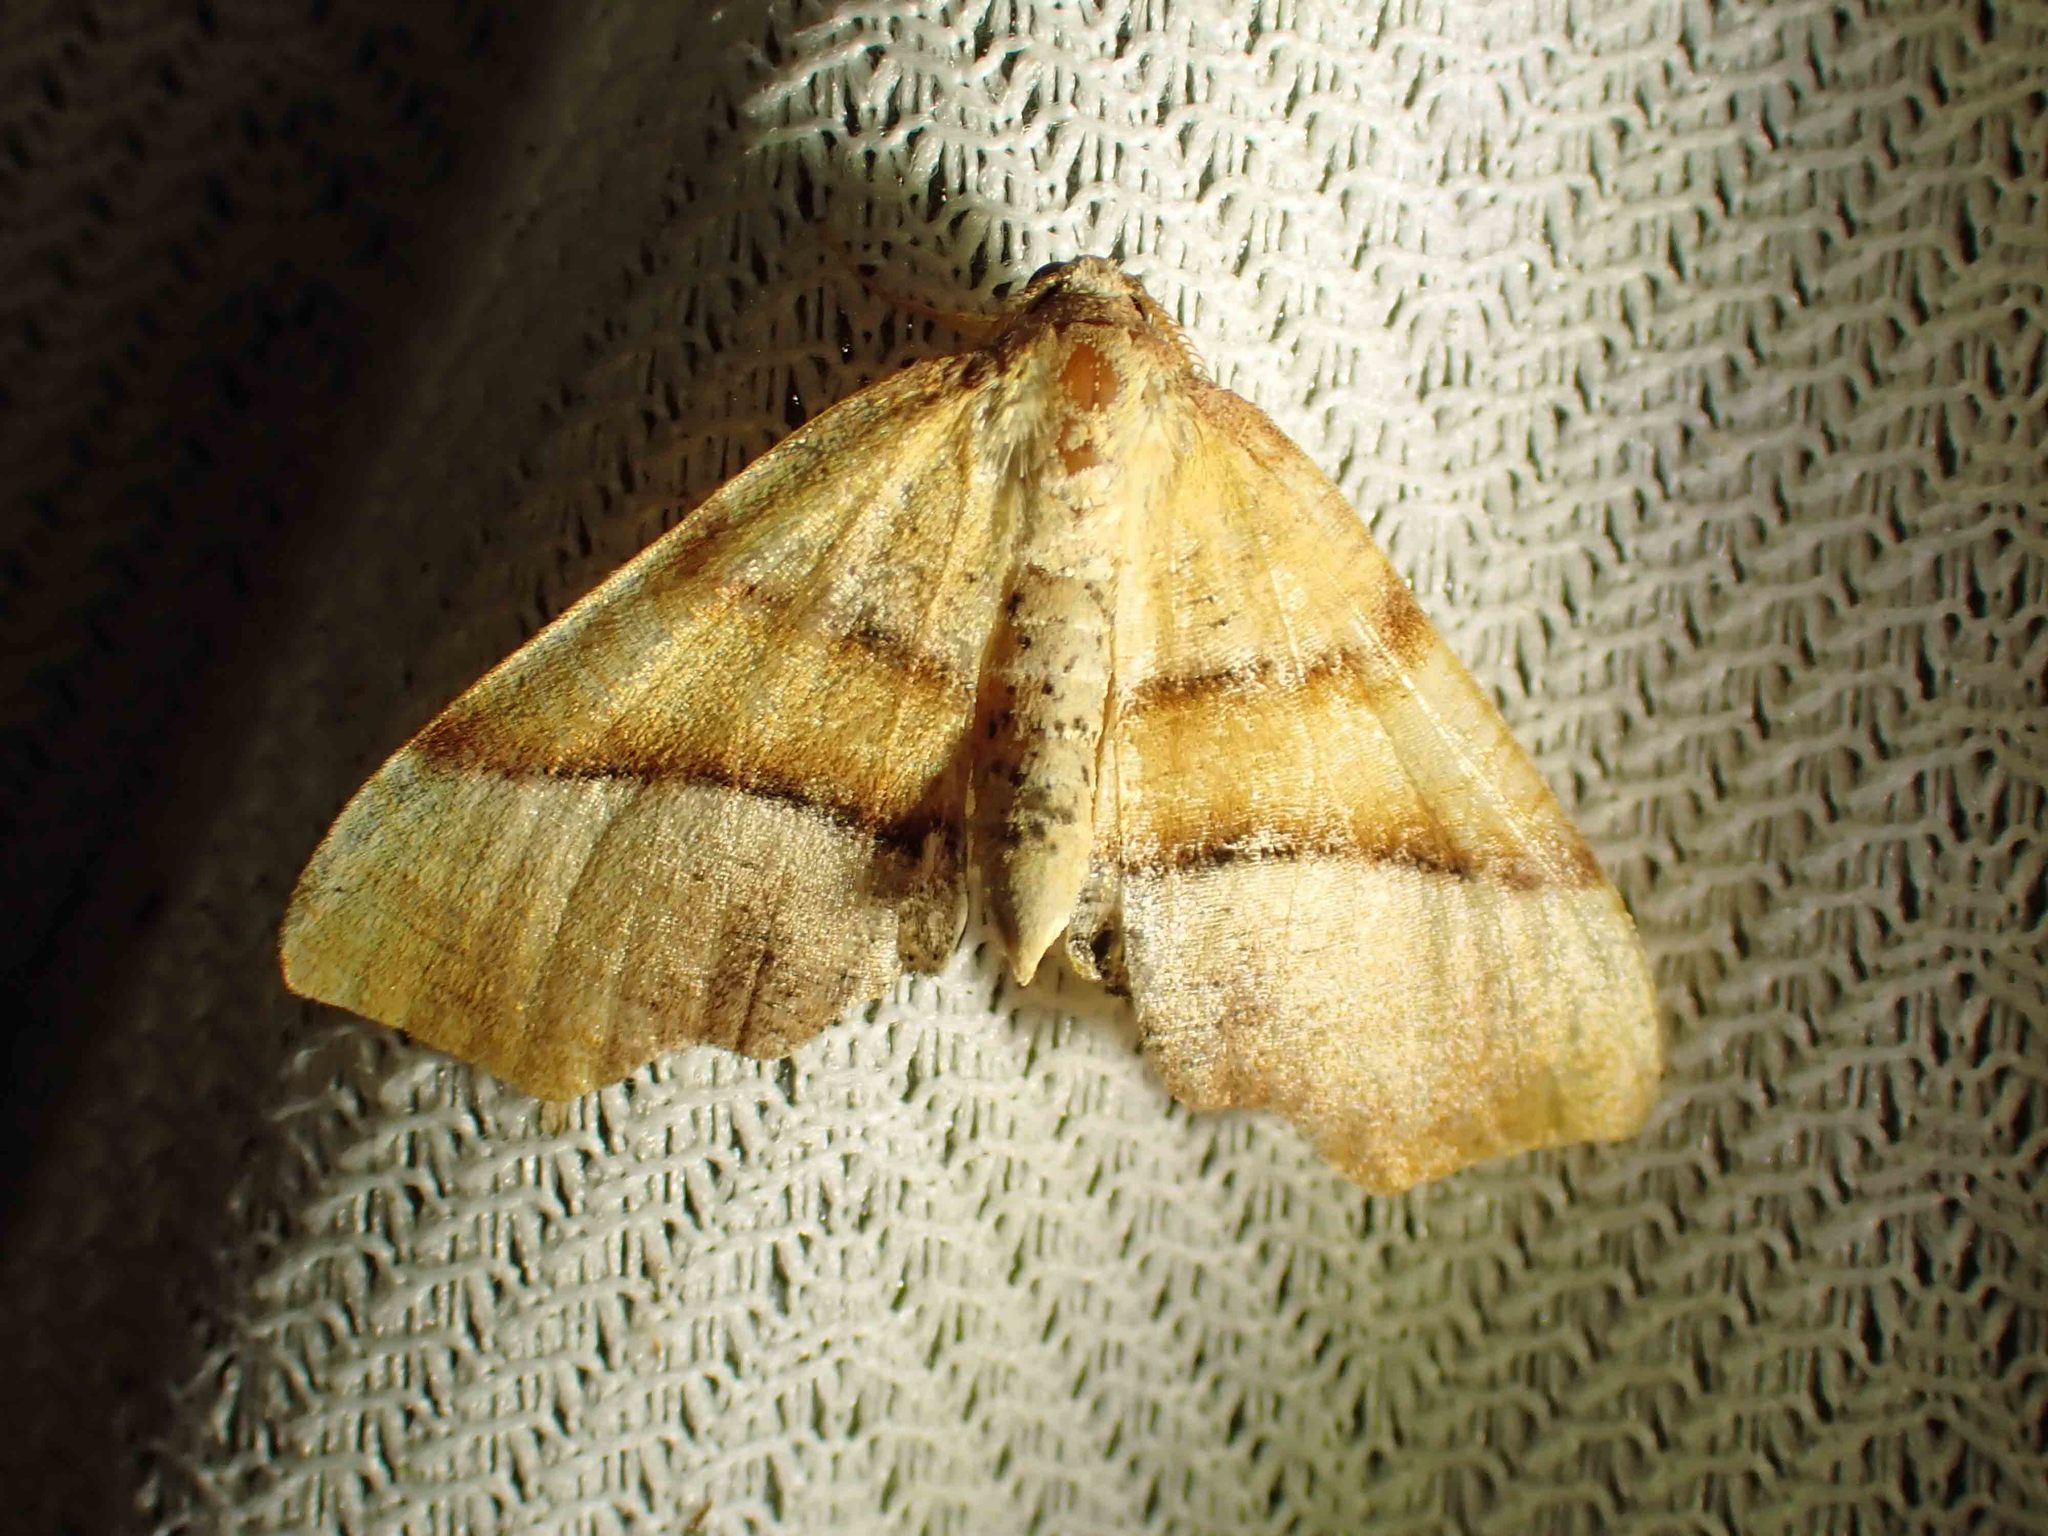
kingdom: Animalia
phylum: Arthropoda
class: Insecta
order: Lepidoptera
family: Geometridae
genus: Plagodis
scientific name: Plagodis phlogosaria
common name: Straight-lined plagodis
